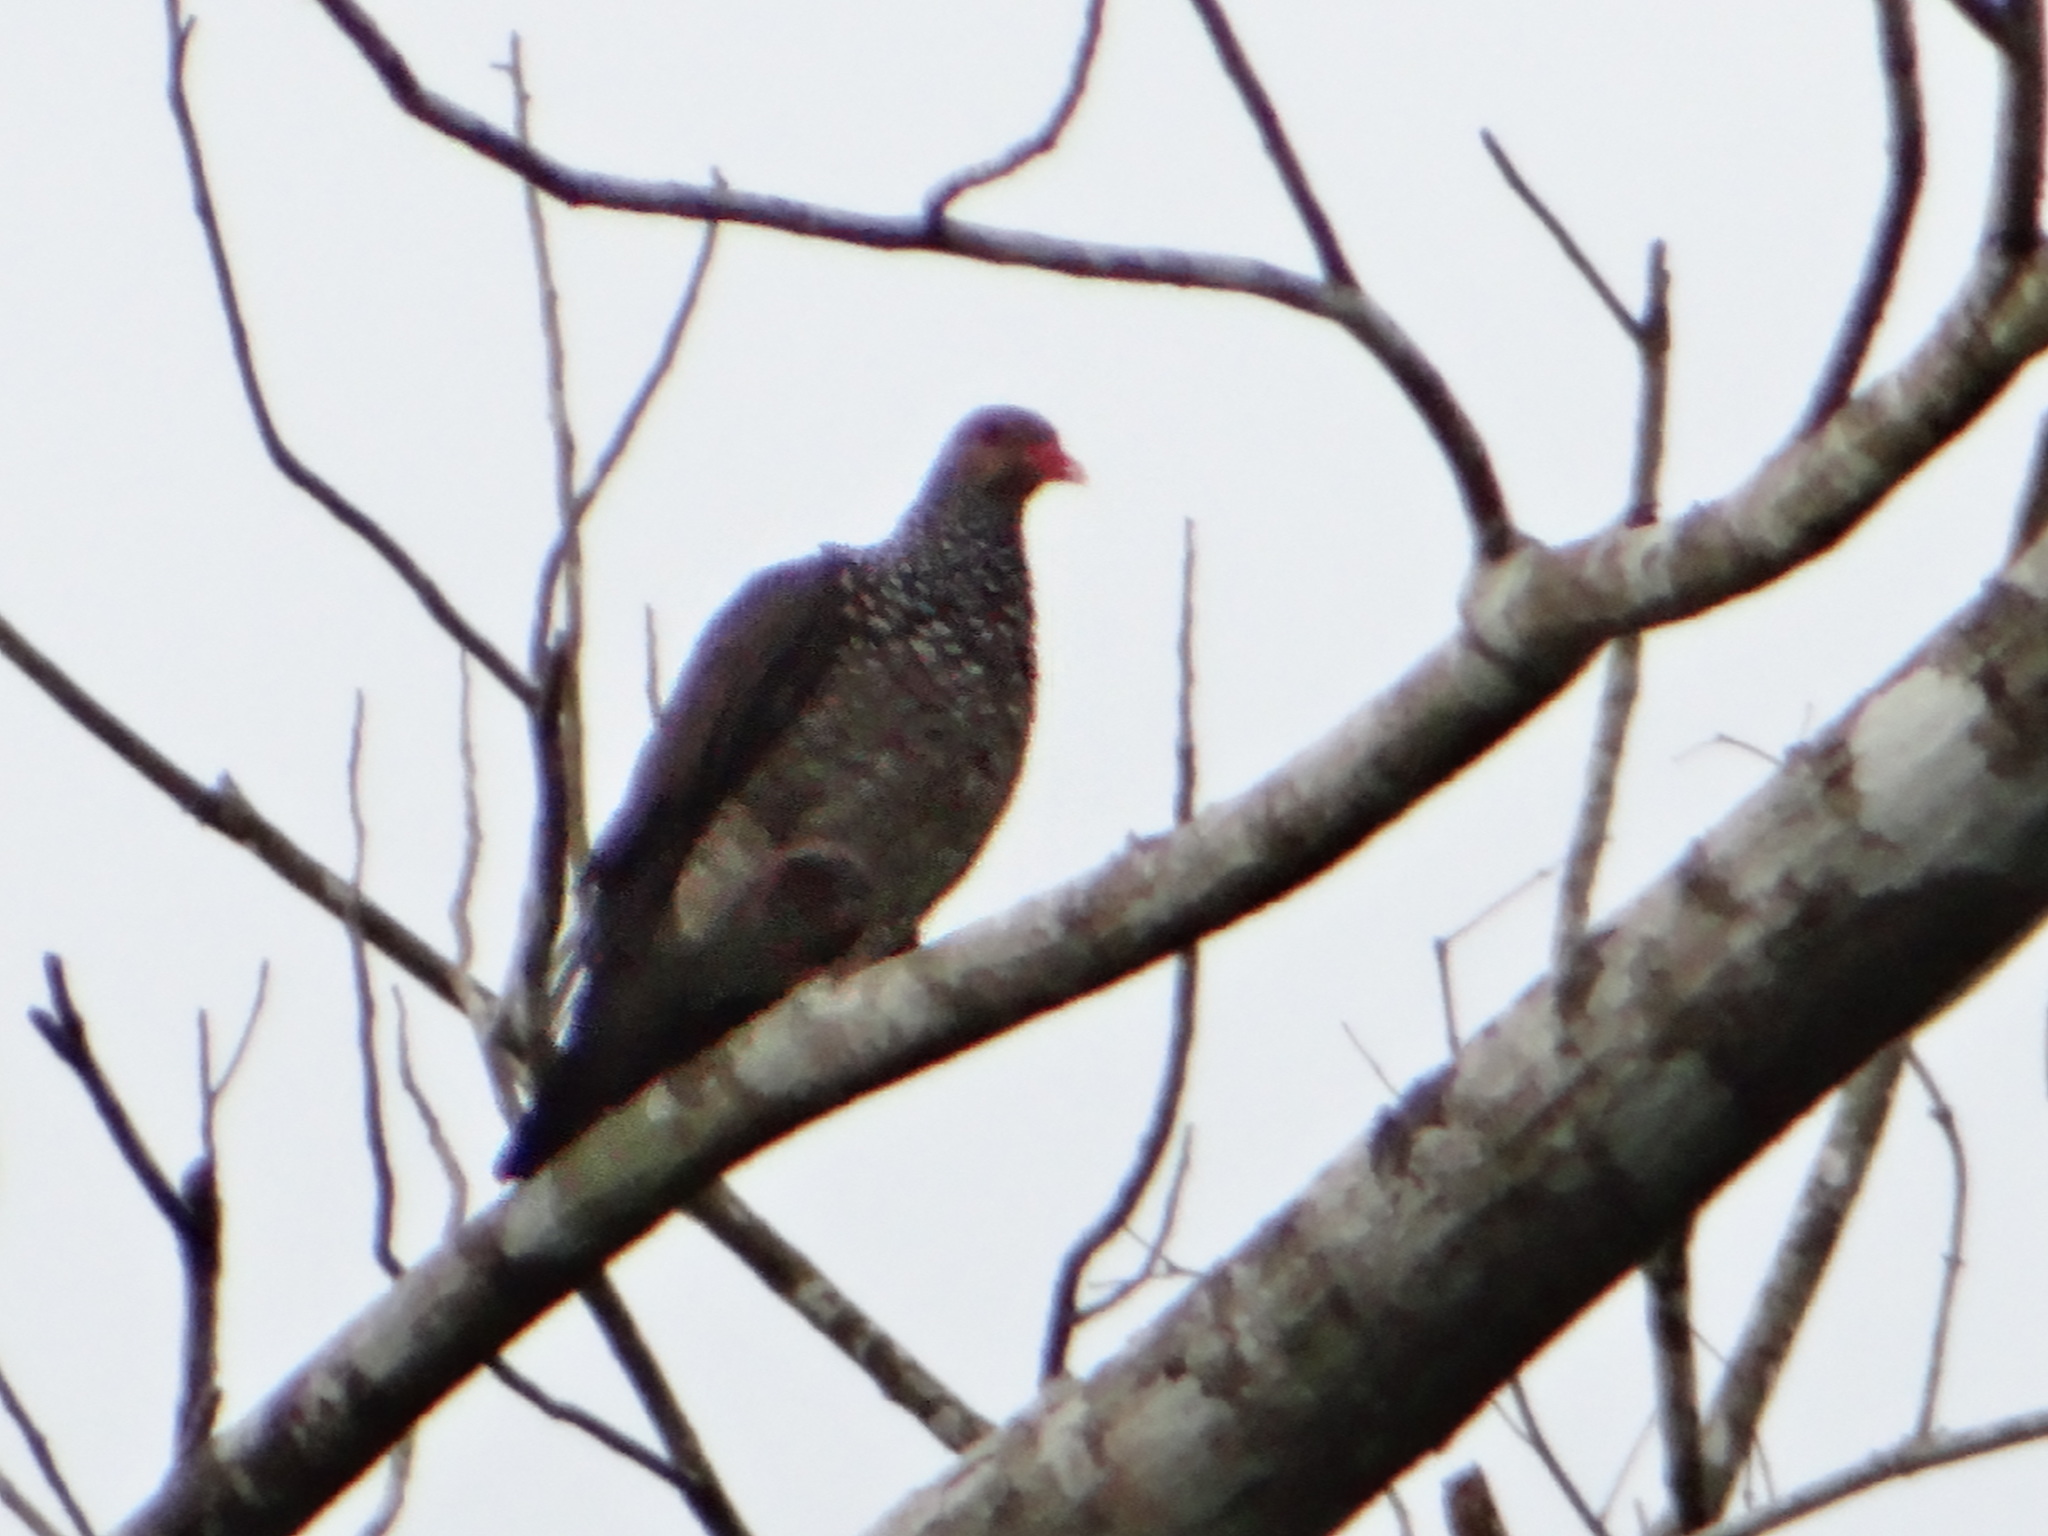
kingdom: Animalia
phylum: Chordata
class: Aves
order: Columbiformes
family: Columbidae
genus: Patagioenas
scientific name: Patagioenas speciosa
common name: Scaled pigeon
